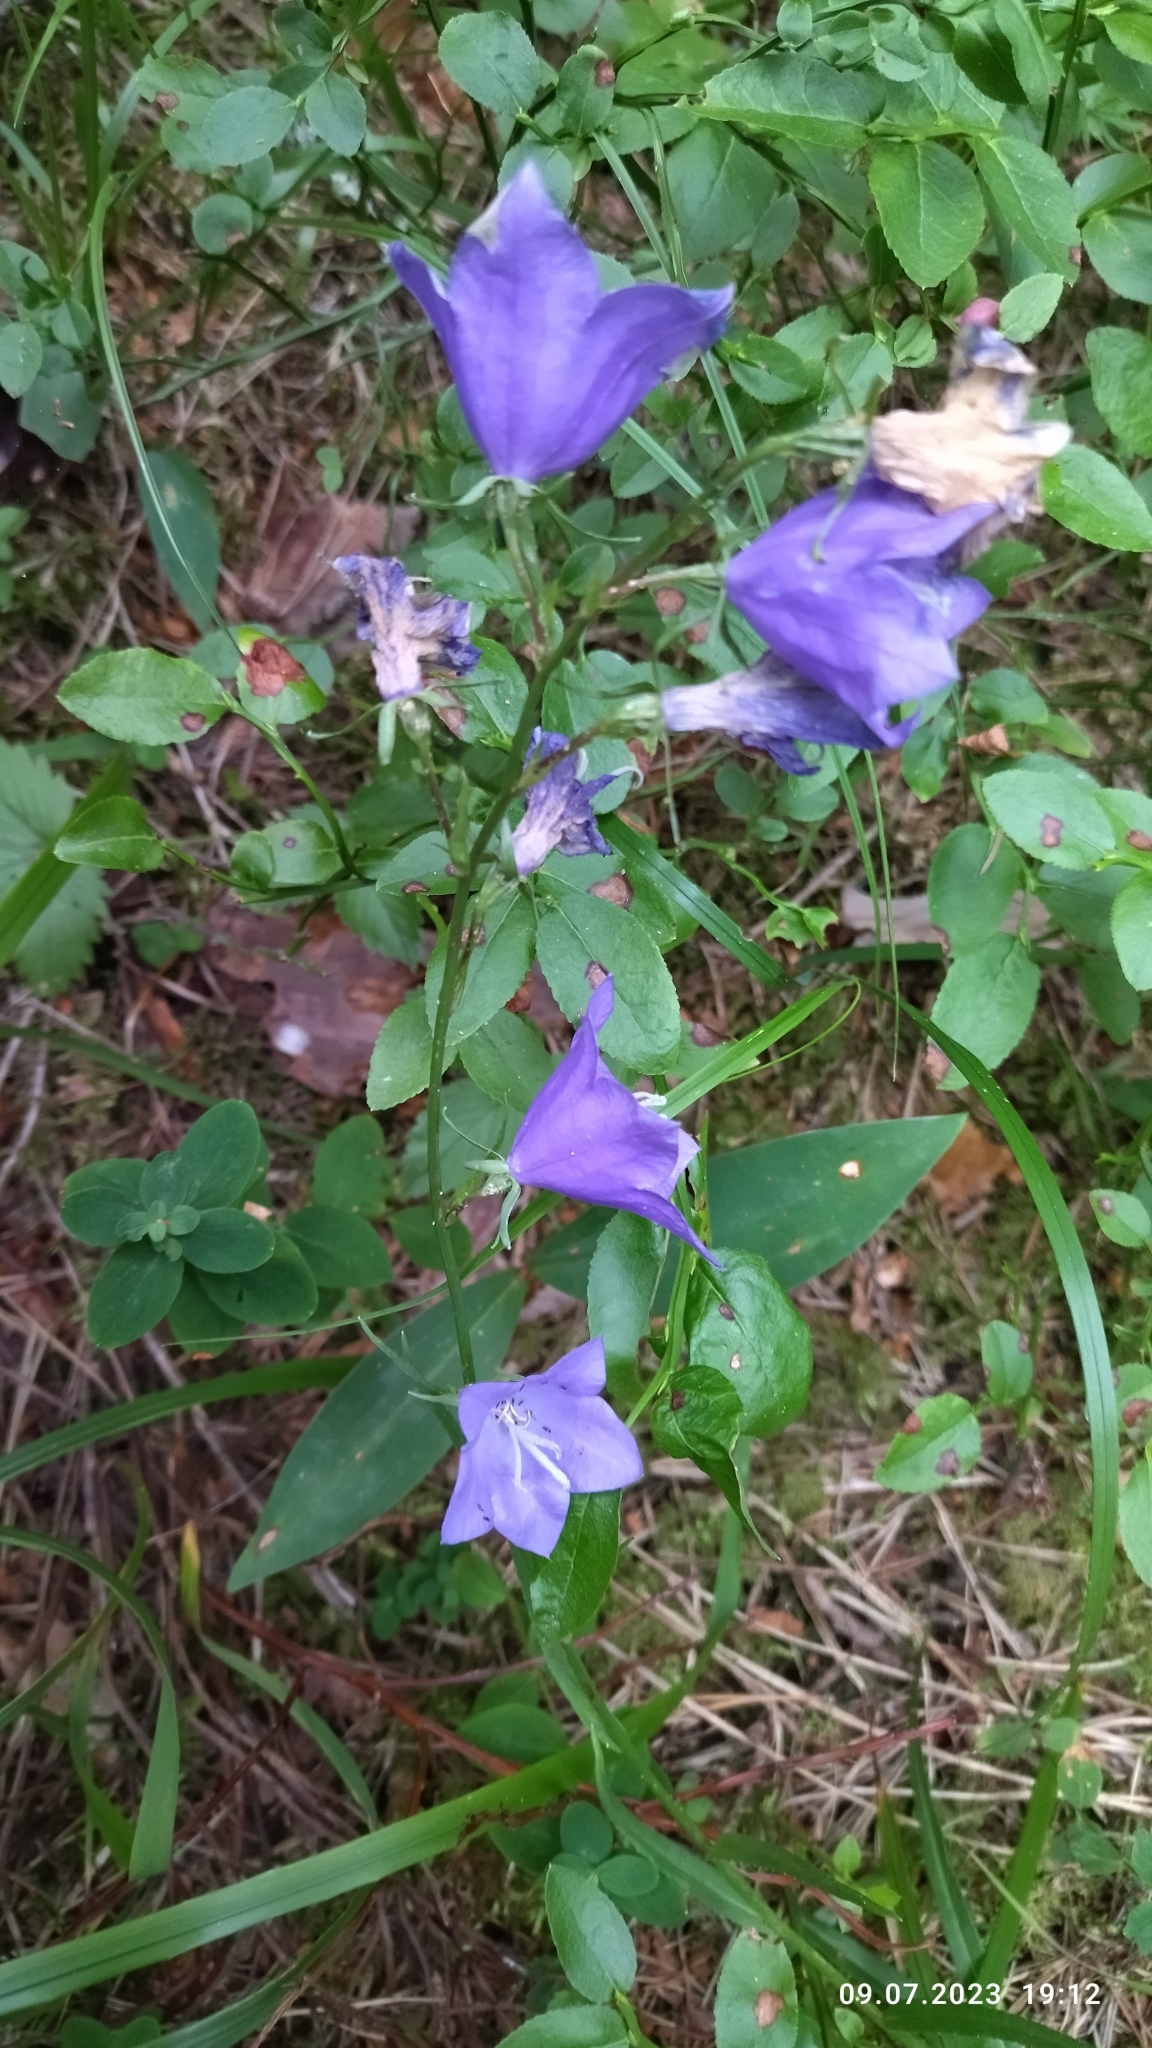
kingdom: Plantae
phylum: Tracheophyta
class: Magnoliopsida
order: Asterales
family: Campanulaceae
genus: Campanula
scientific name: Campanula persicifolia
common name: Peach-leaved bellflower
